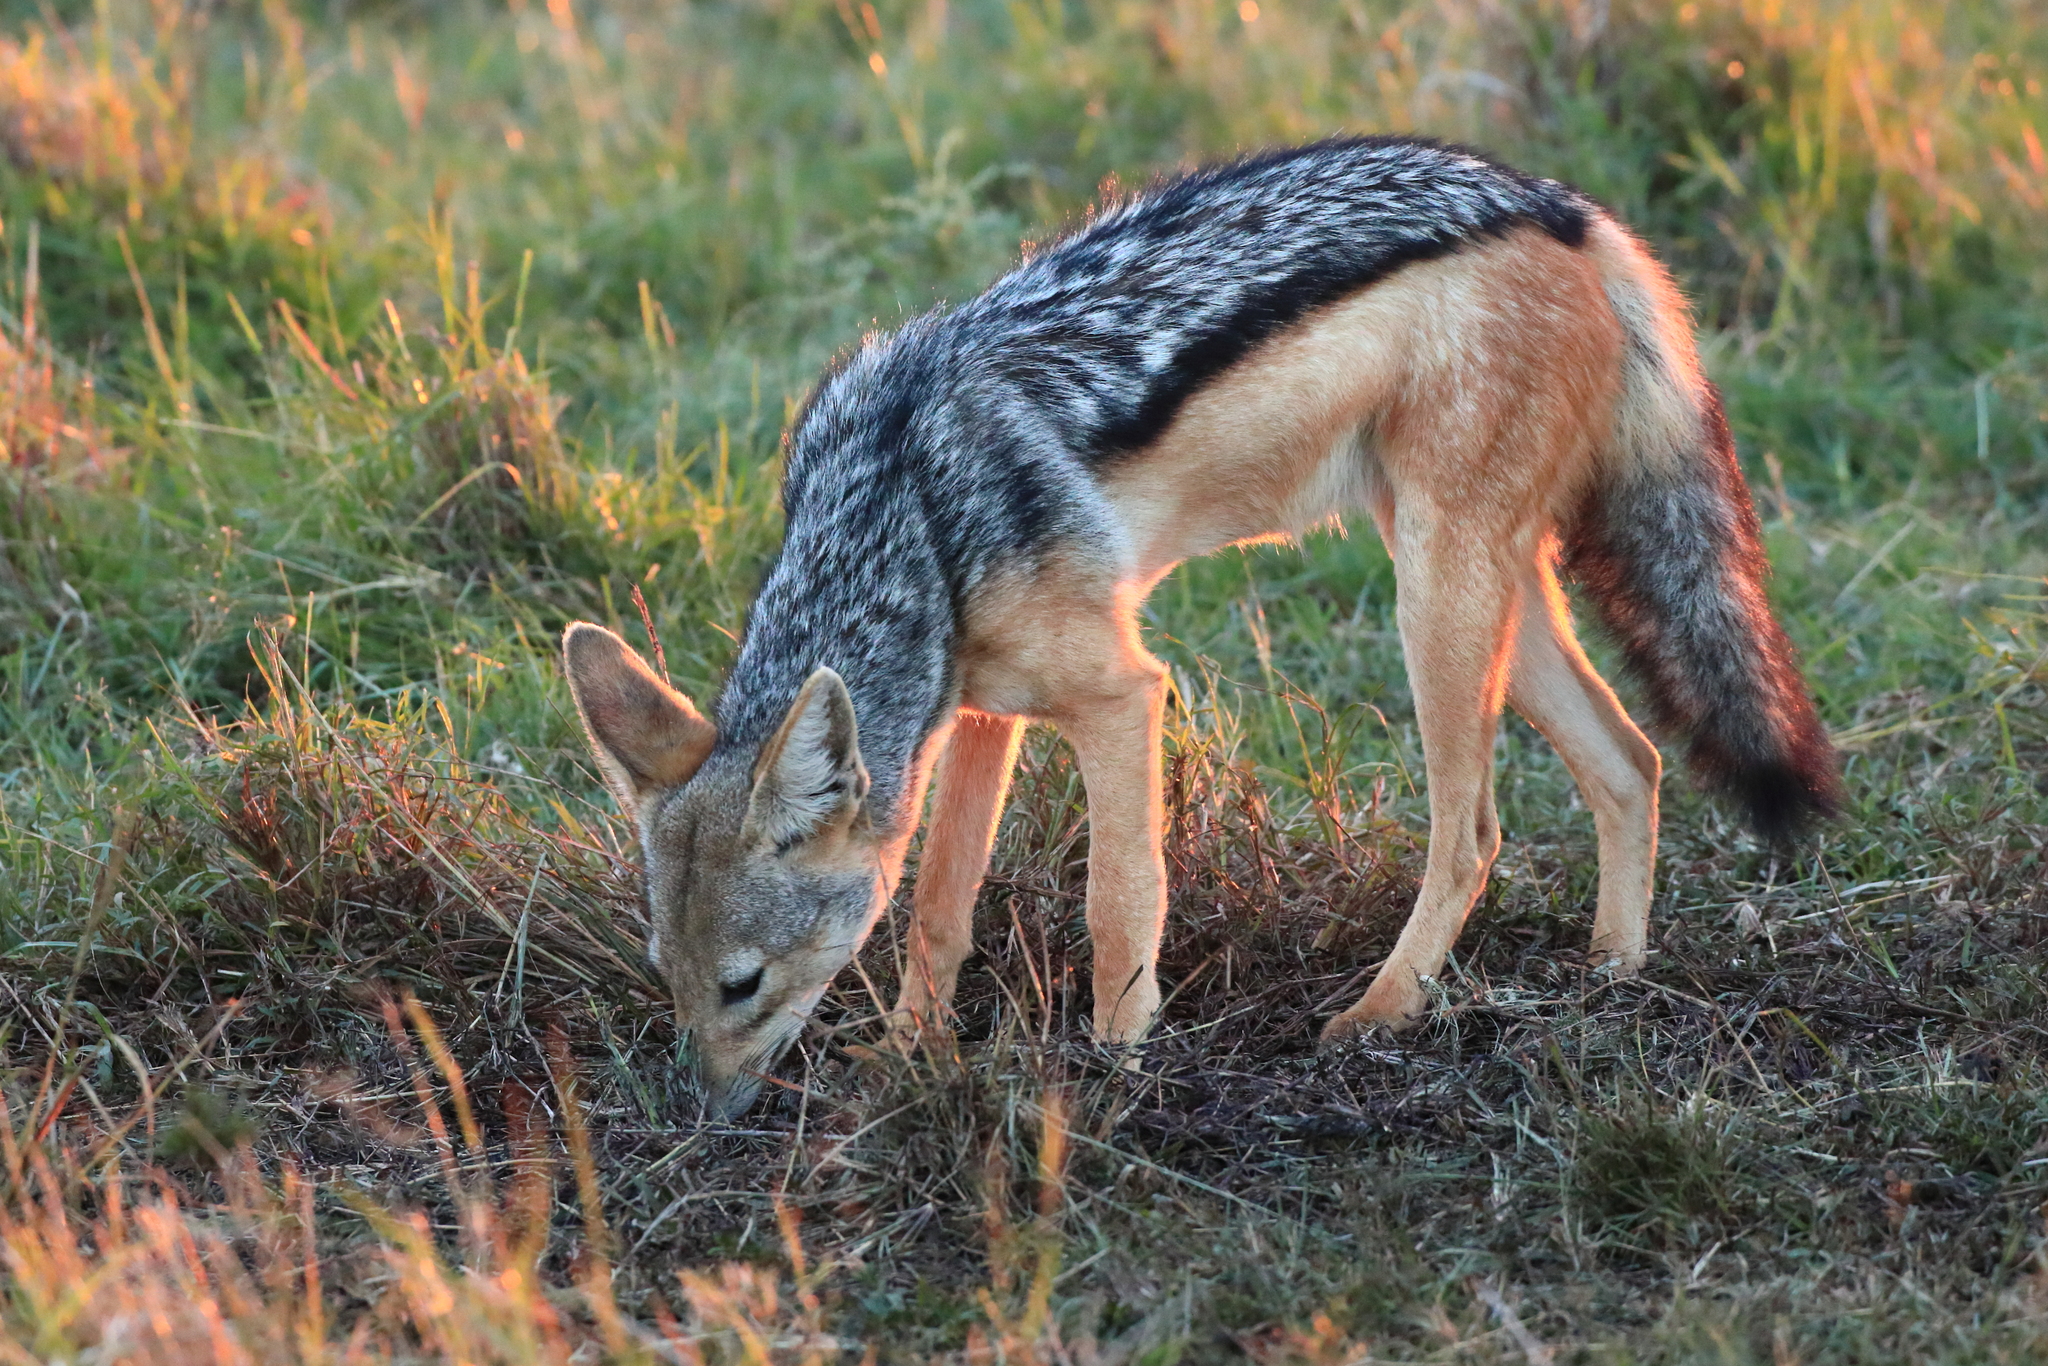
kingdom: Animalia
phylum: Chordata
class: Mammalia
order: Carnivora
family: Canidae
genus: Lupulella
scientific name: Lupulella
